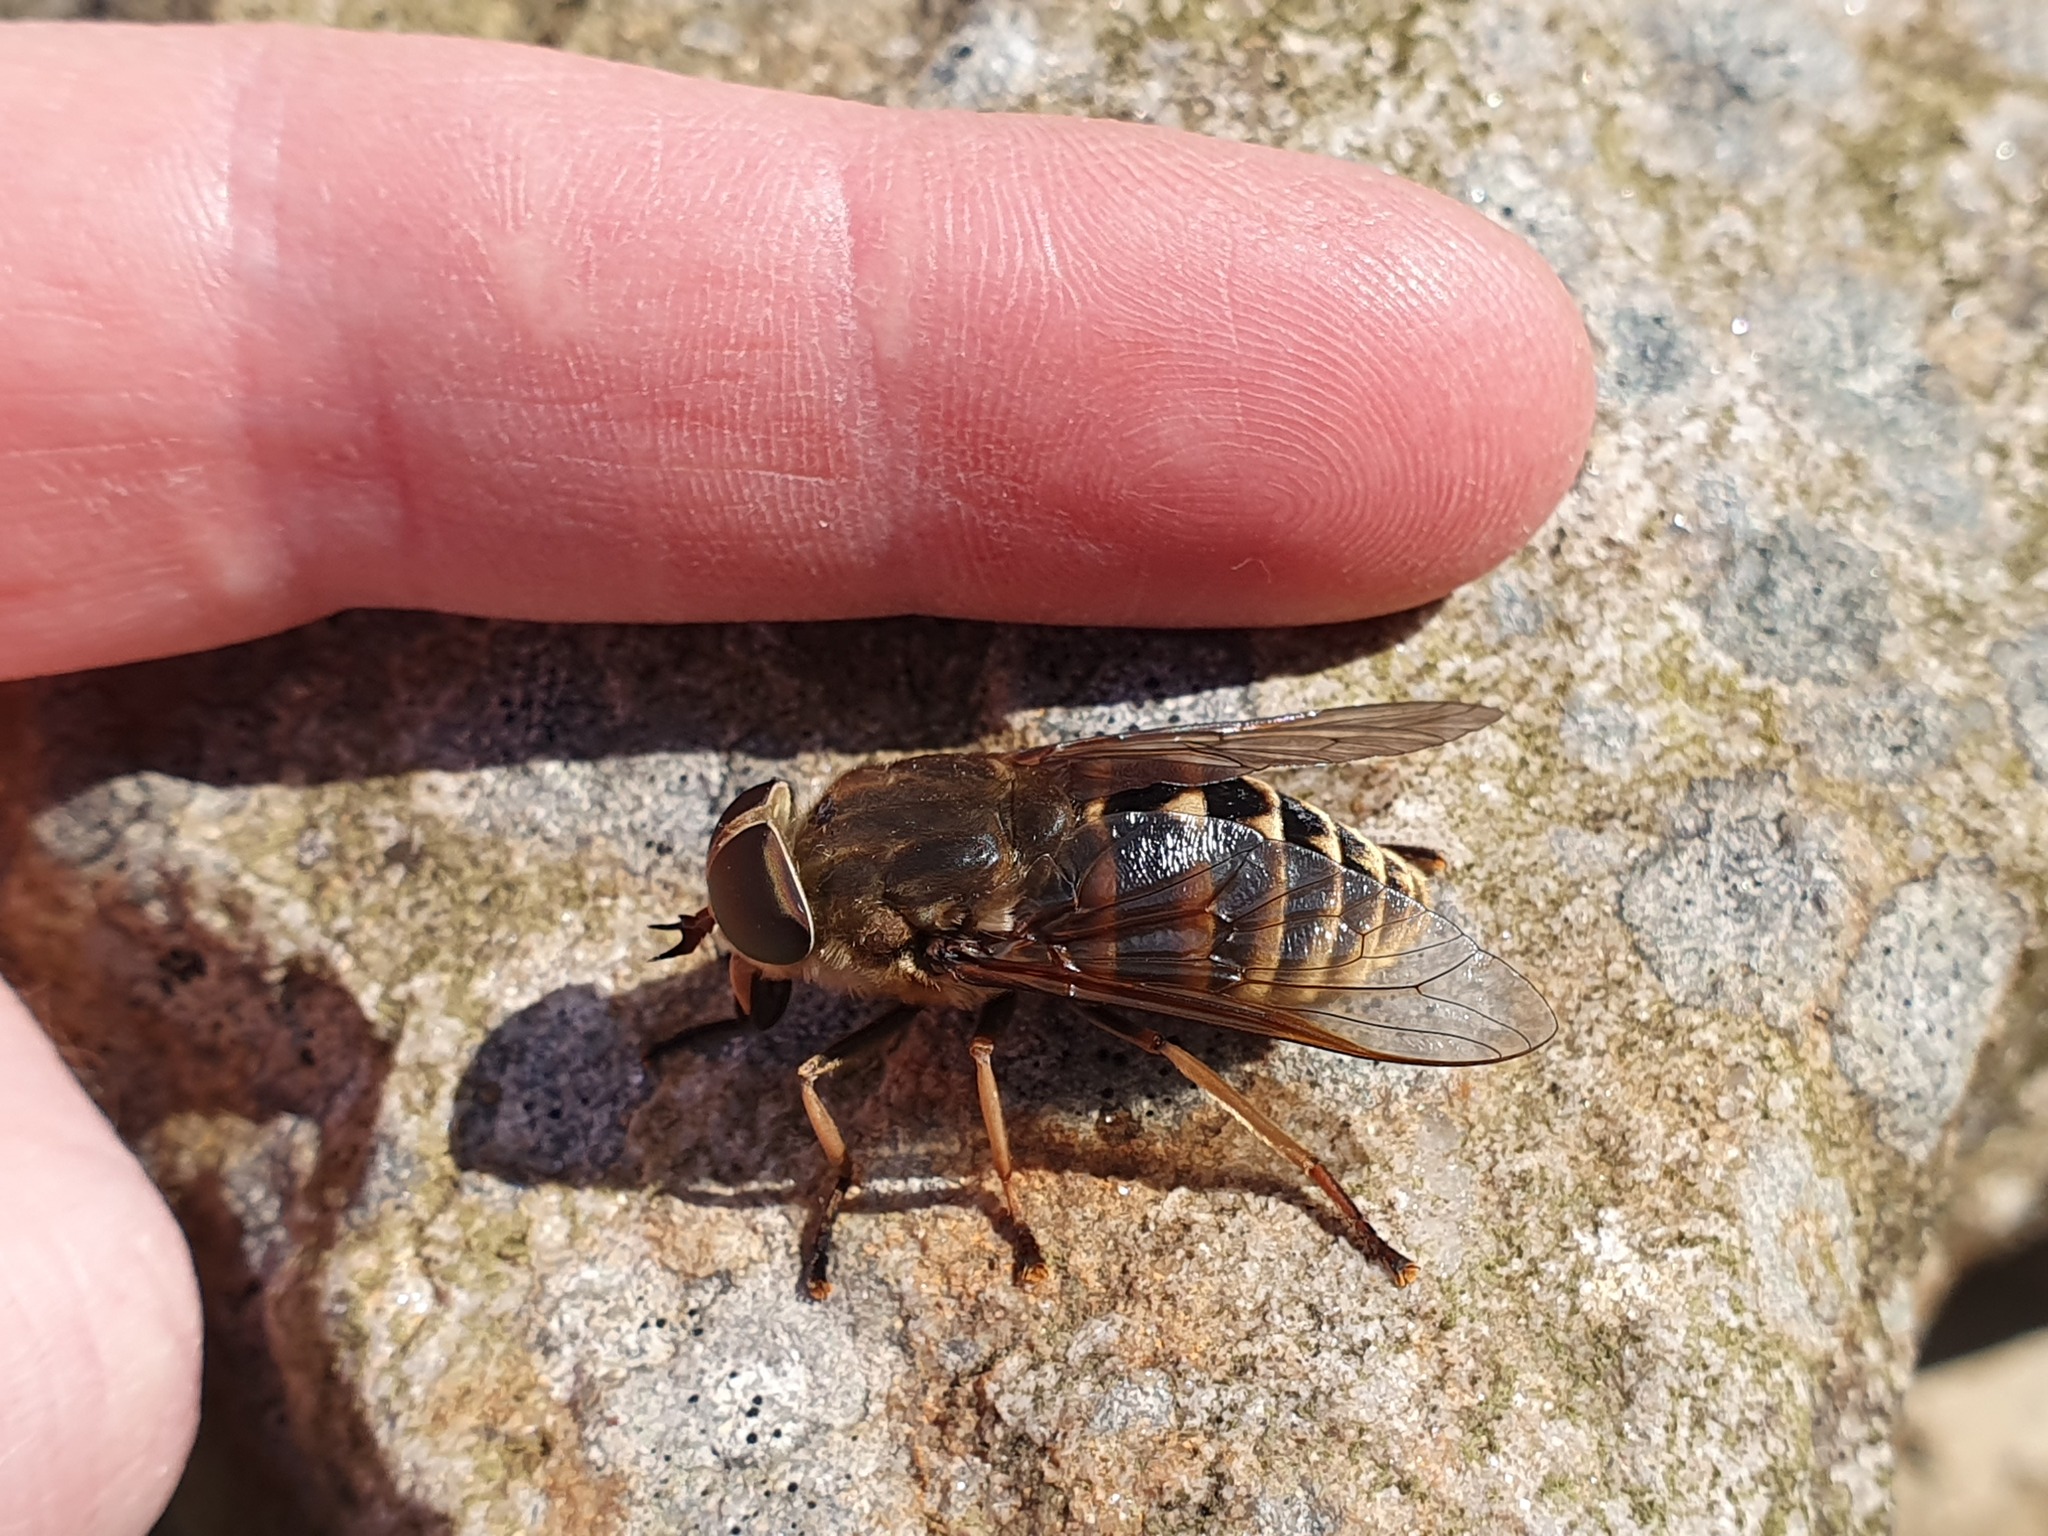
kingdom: Animalia
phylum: Arthropoda
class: Insecta
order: Diptera
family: Tabanidae
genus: Tabanus
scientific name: Tabanus sudeticus
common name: Dark giant horsefly
